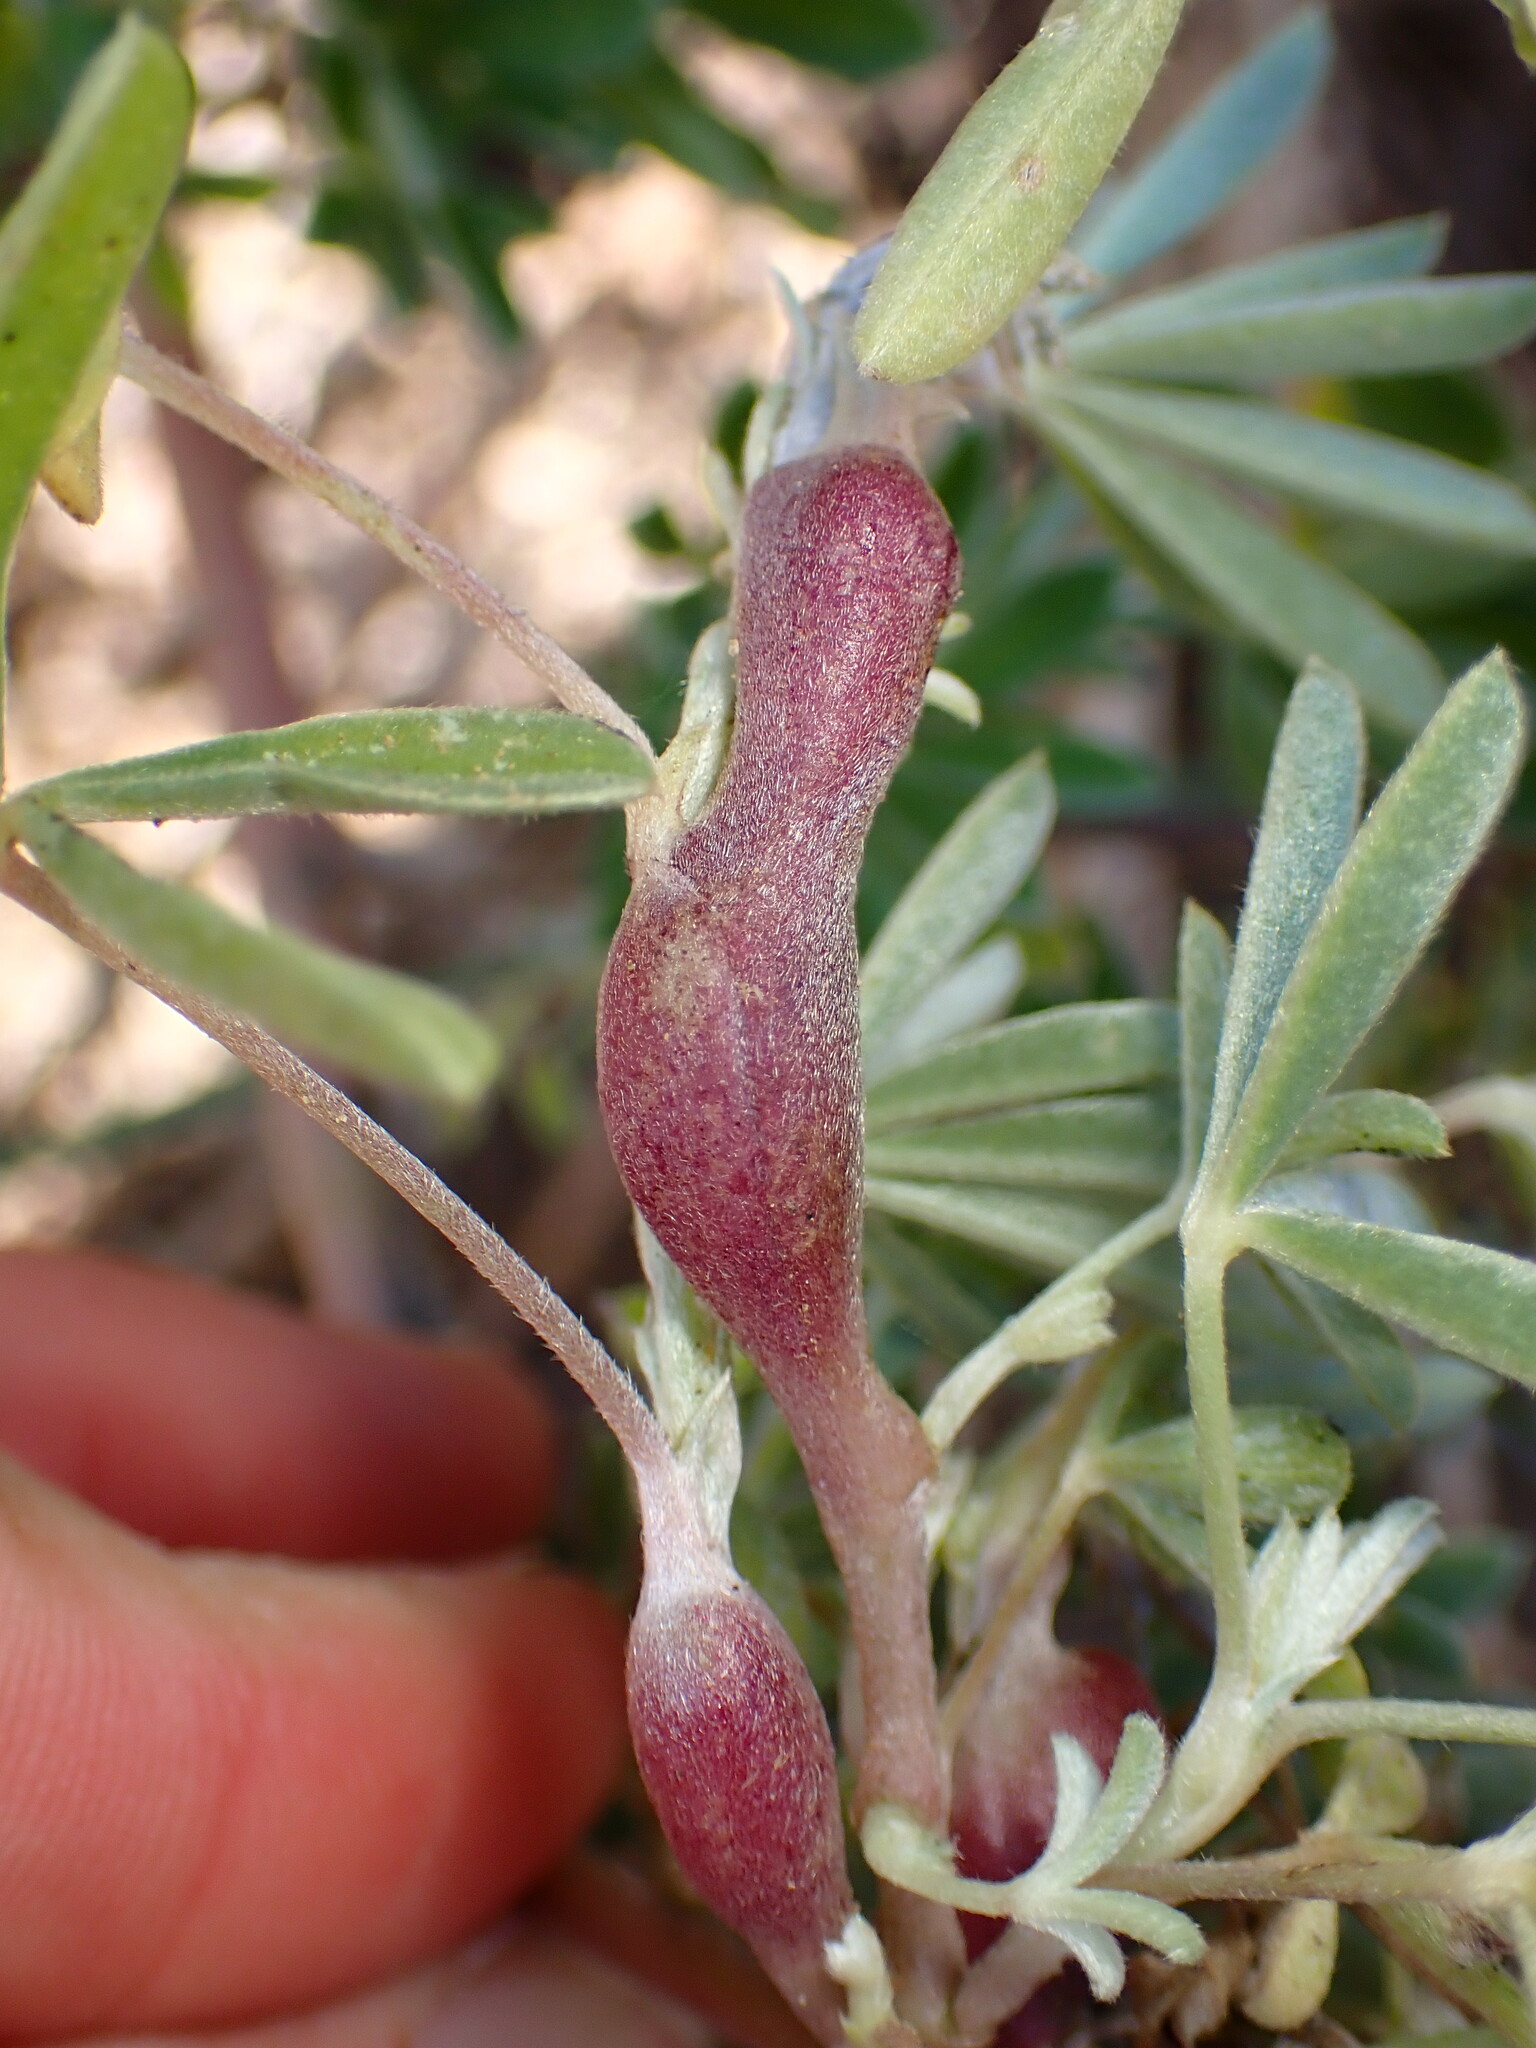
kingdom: Animalia
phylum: Arthropoda
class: Insecta
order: Diptera
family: Cecidomyiidae
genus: Neolasioptera
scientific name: Neolasioptera lupini
